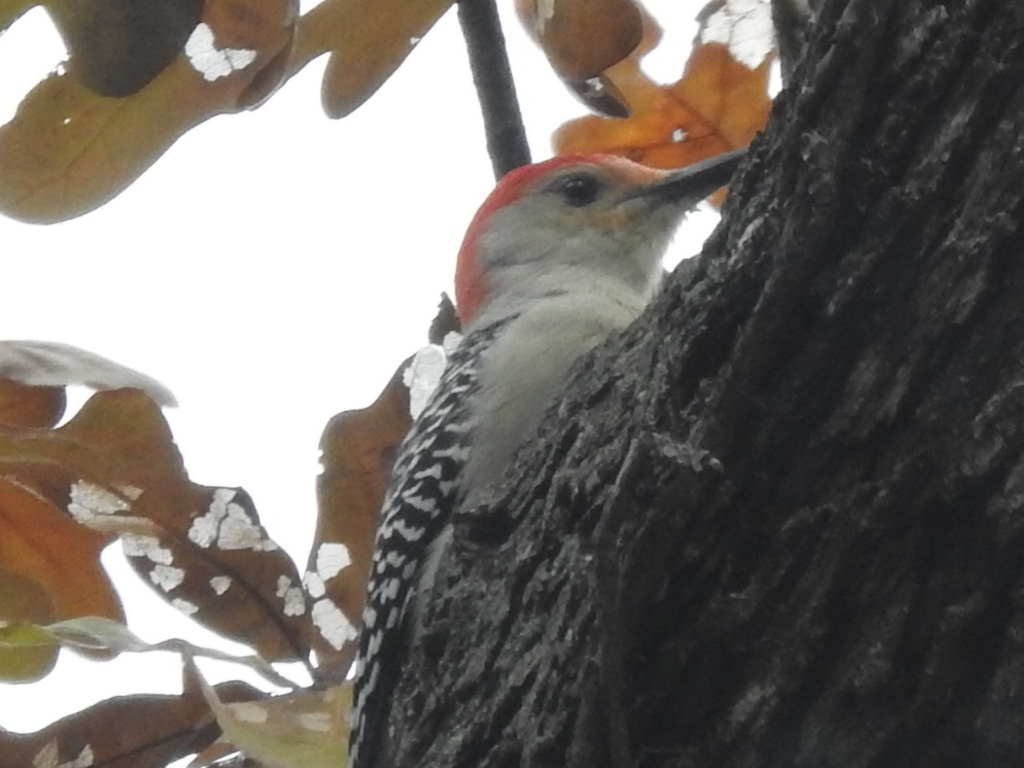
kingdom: Animalia
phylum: Chordata
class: Aves
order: Piciformes
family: Picidae
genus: Melanerpes
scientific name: Melanerpes carolinus
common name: Red-bellied woodpecker
